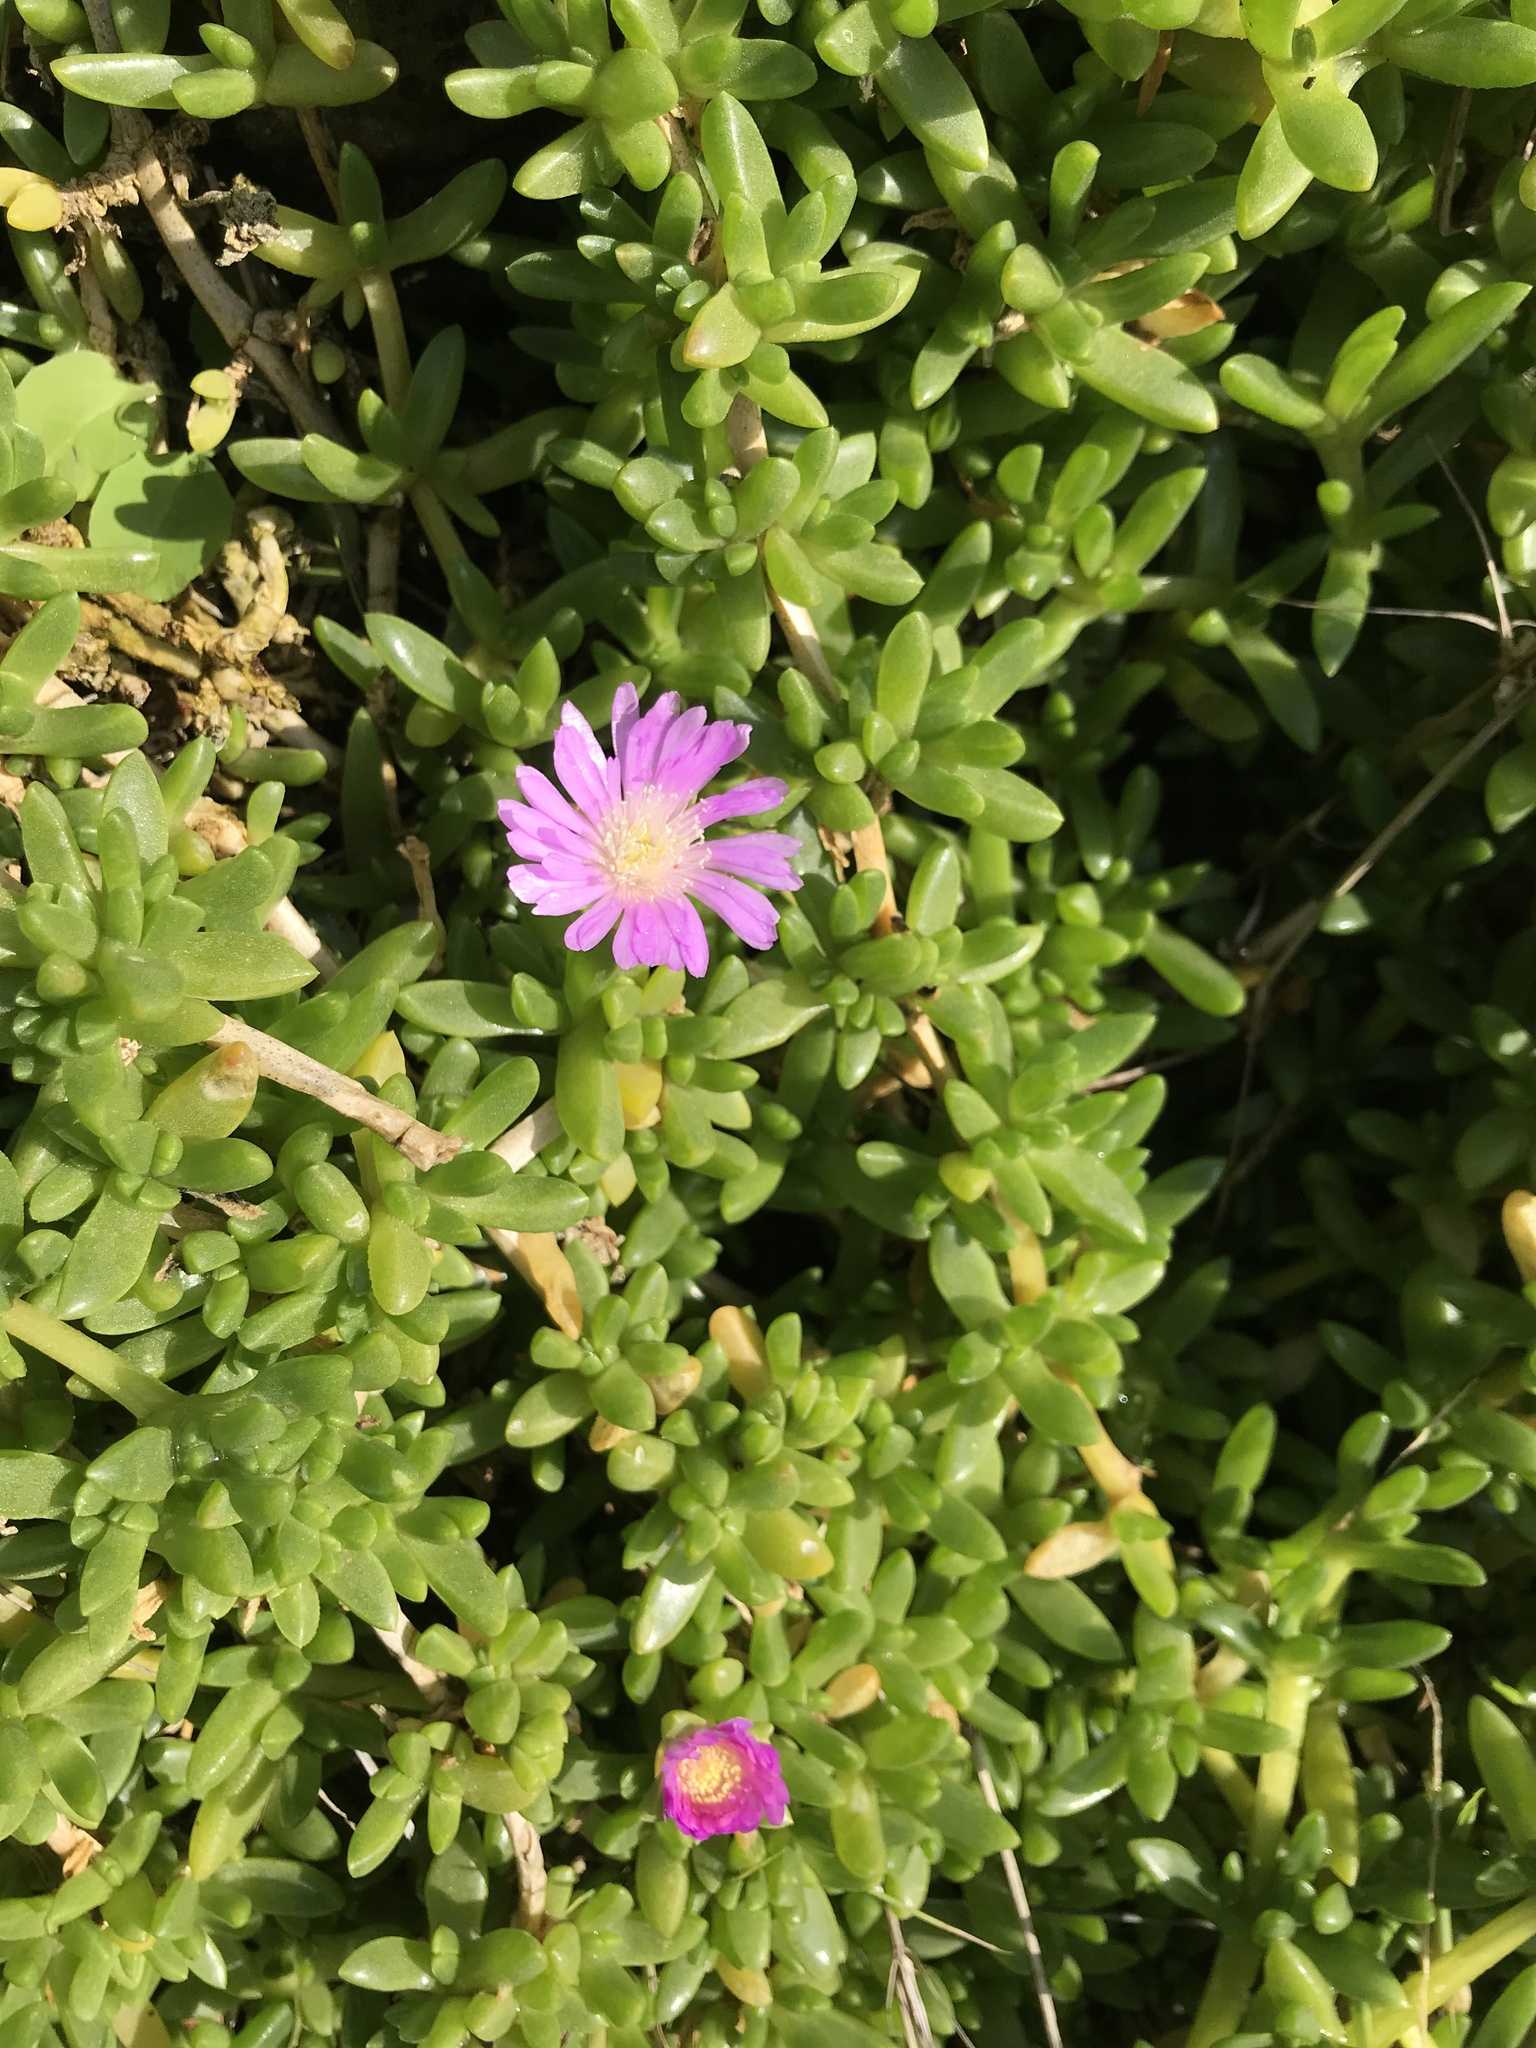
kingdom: Plantae
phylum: Tracheophyta
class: Magnoliopsida
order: Caryophyllales
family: Aizoaceae
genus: Disphyma
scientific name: Disphyma papillatum
